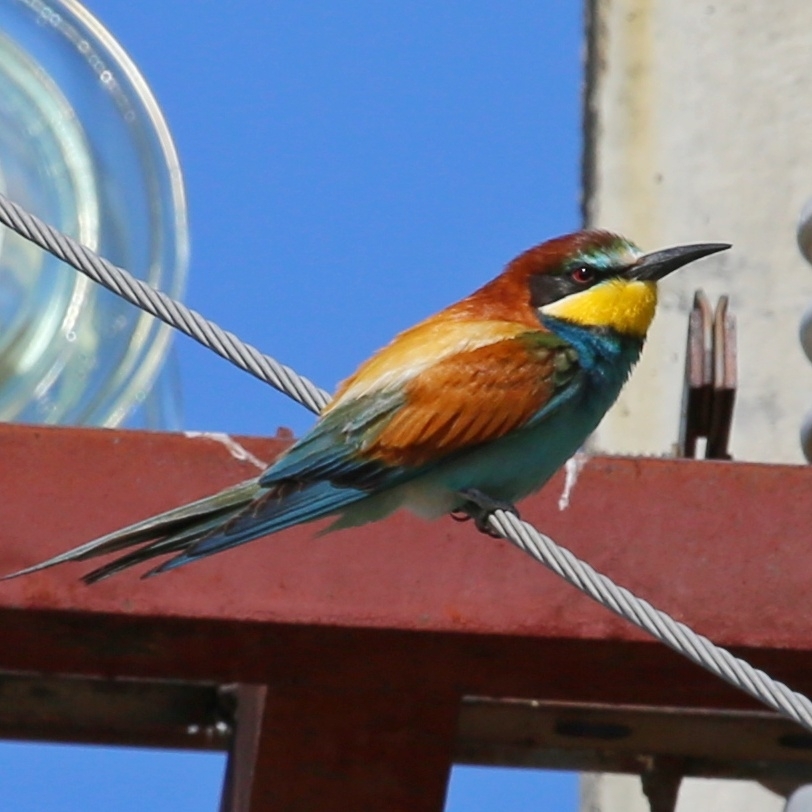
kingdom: Animalia
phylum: Chordata
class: Aves
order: Coraciiformes
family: Meropidae
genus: Merops
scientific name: Merops apiaster
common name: European bee-eater
